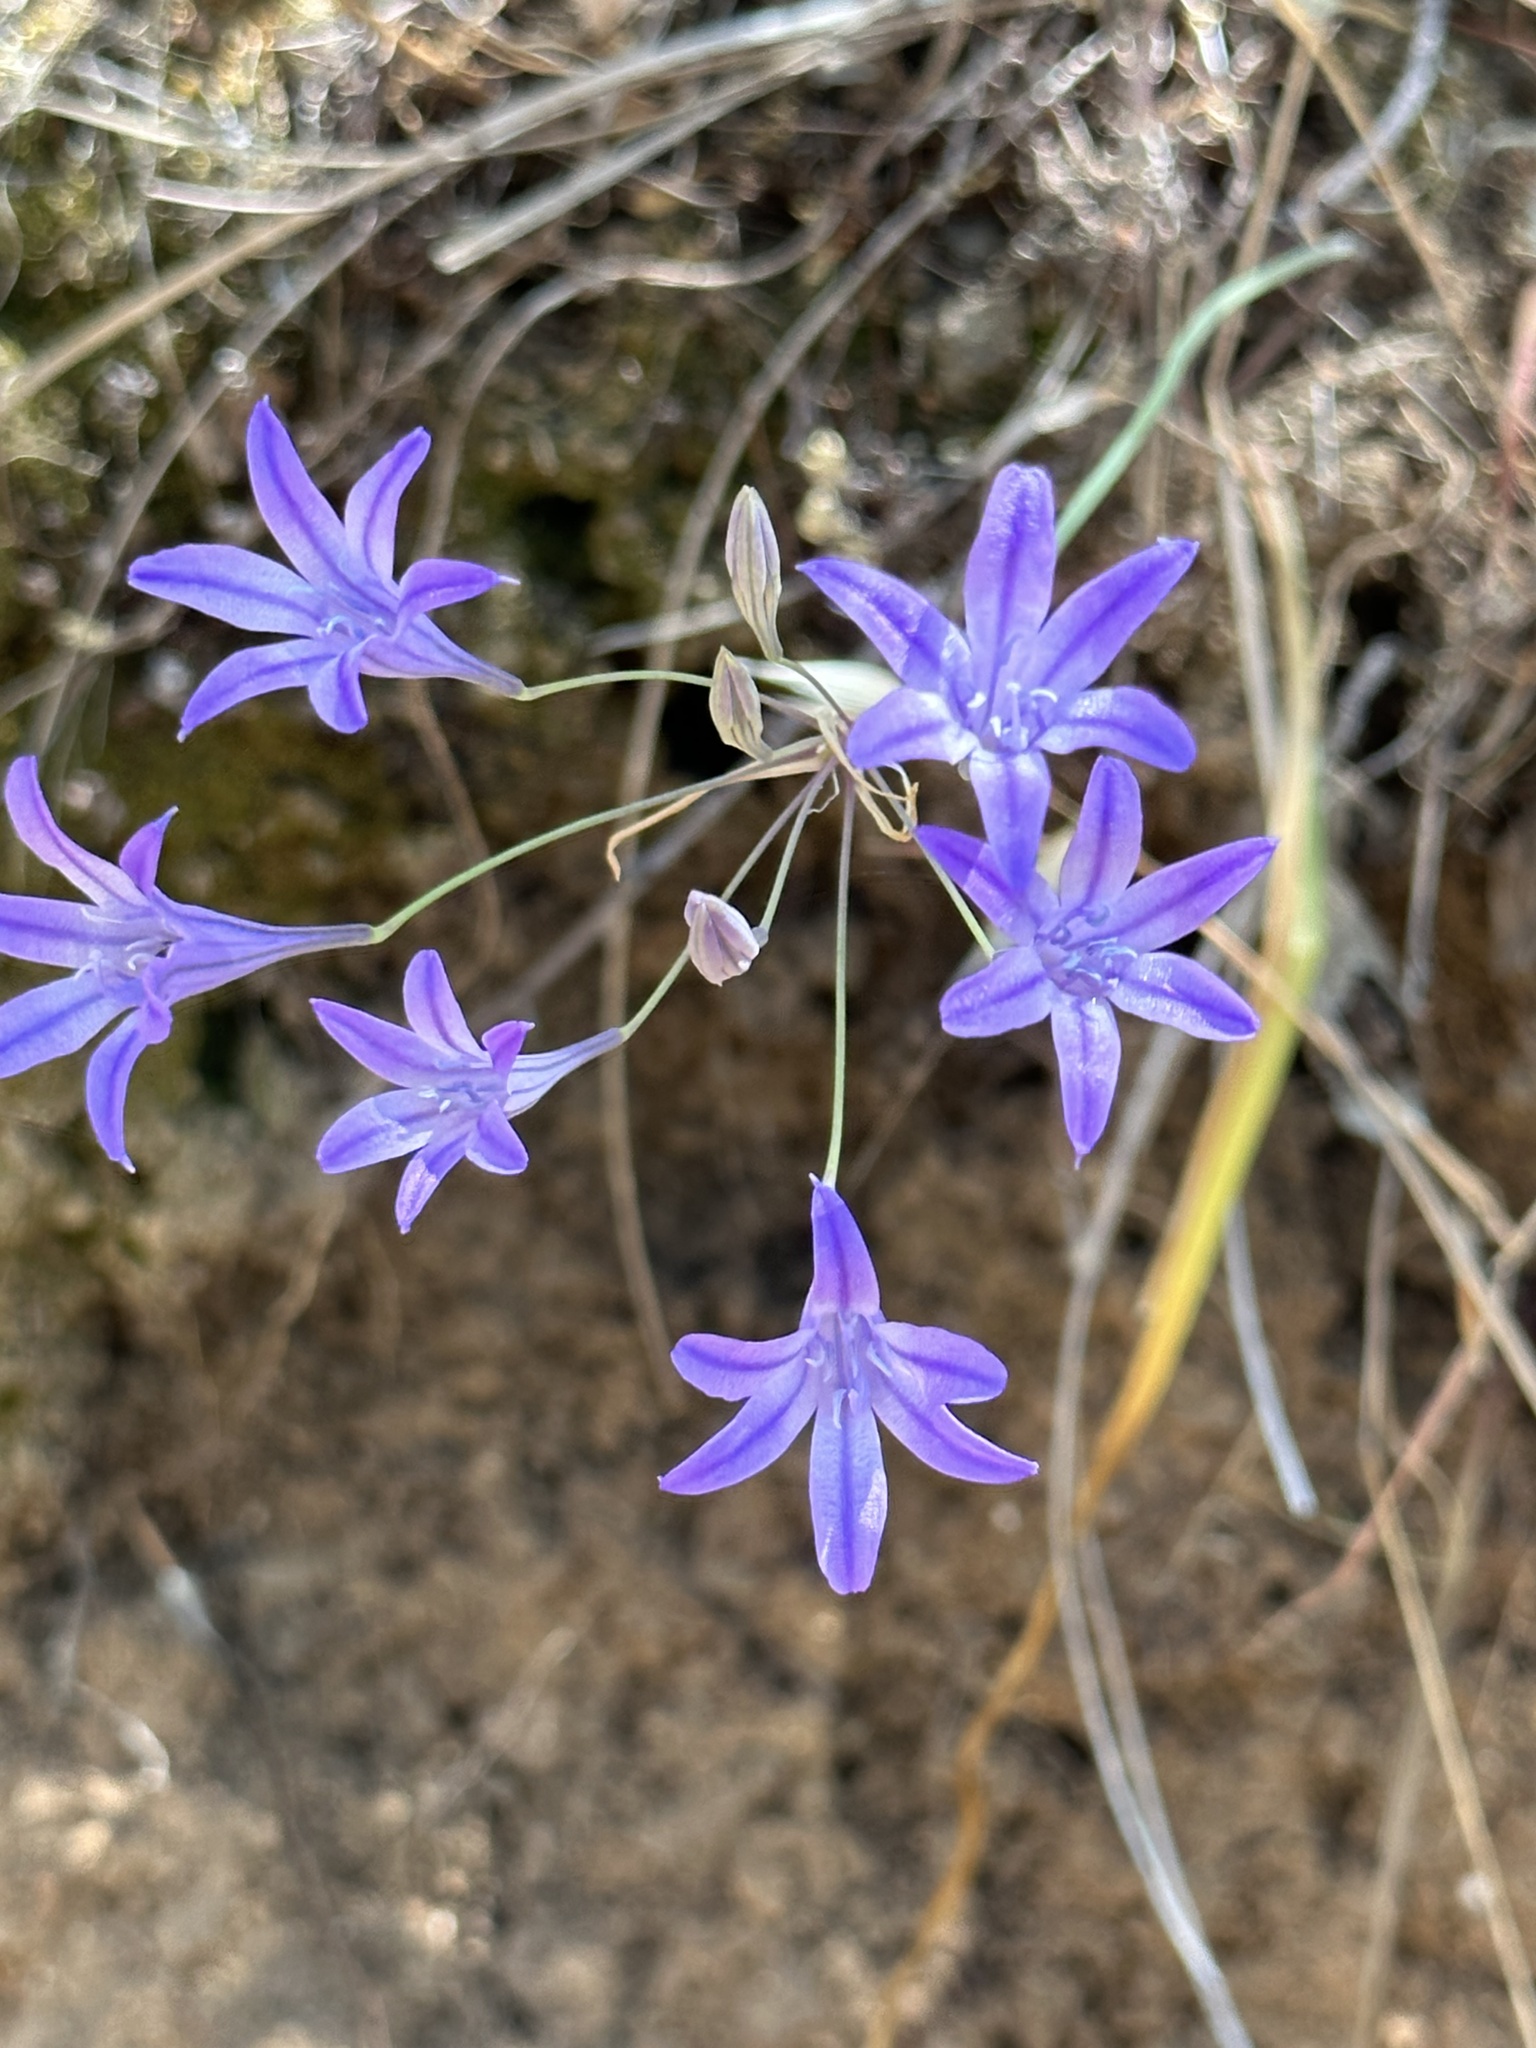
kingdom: Plantae
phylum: Tracheophyta
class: Liliopsida
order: Asparagales
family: Asparagaceae
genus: Triteleia
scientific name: Triteleia laxa
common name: Triplet-lily
